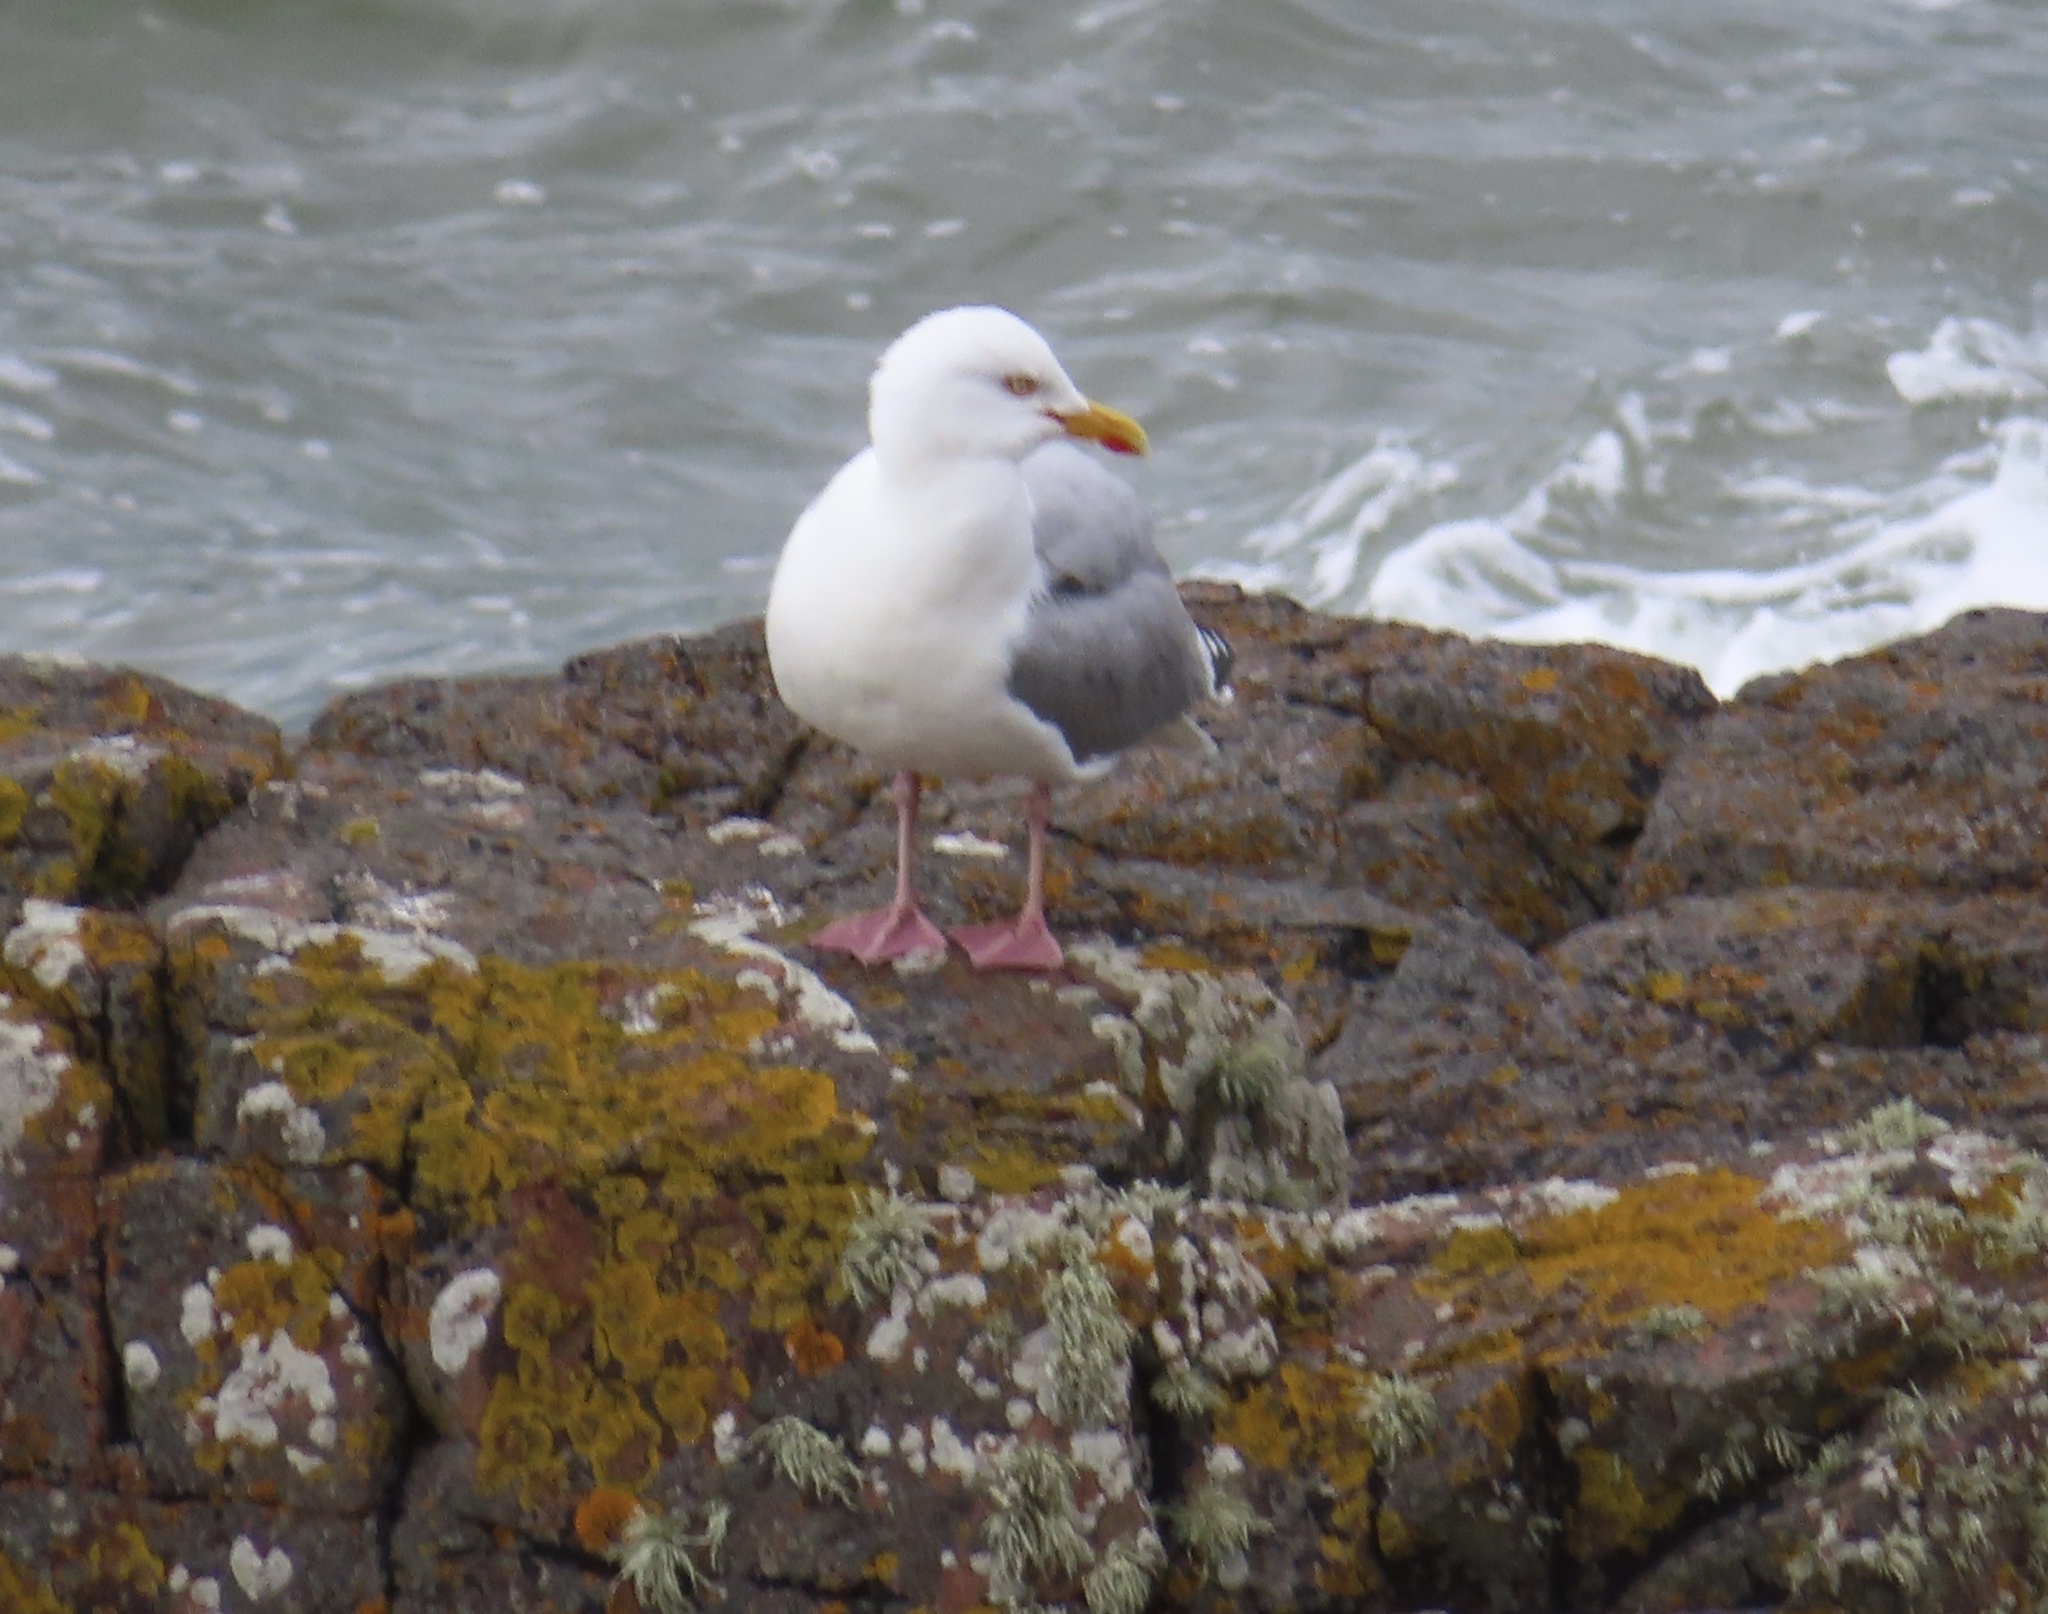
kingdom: Animalia
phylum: Chordata
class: Aves
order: Charadriiformes
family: Laridae
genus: Larus
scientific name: Larus argentatus
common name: Herring gull
